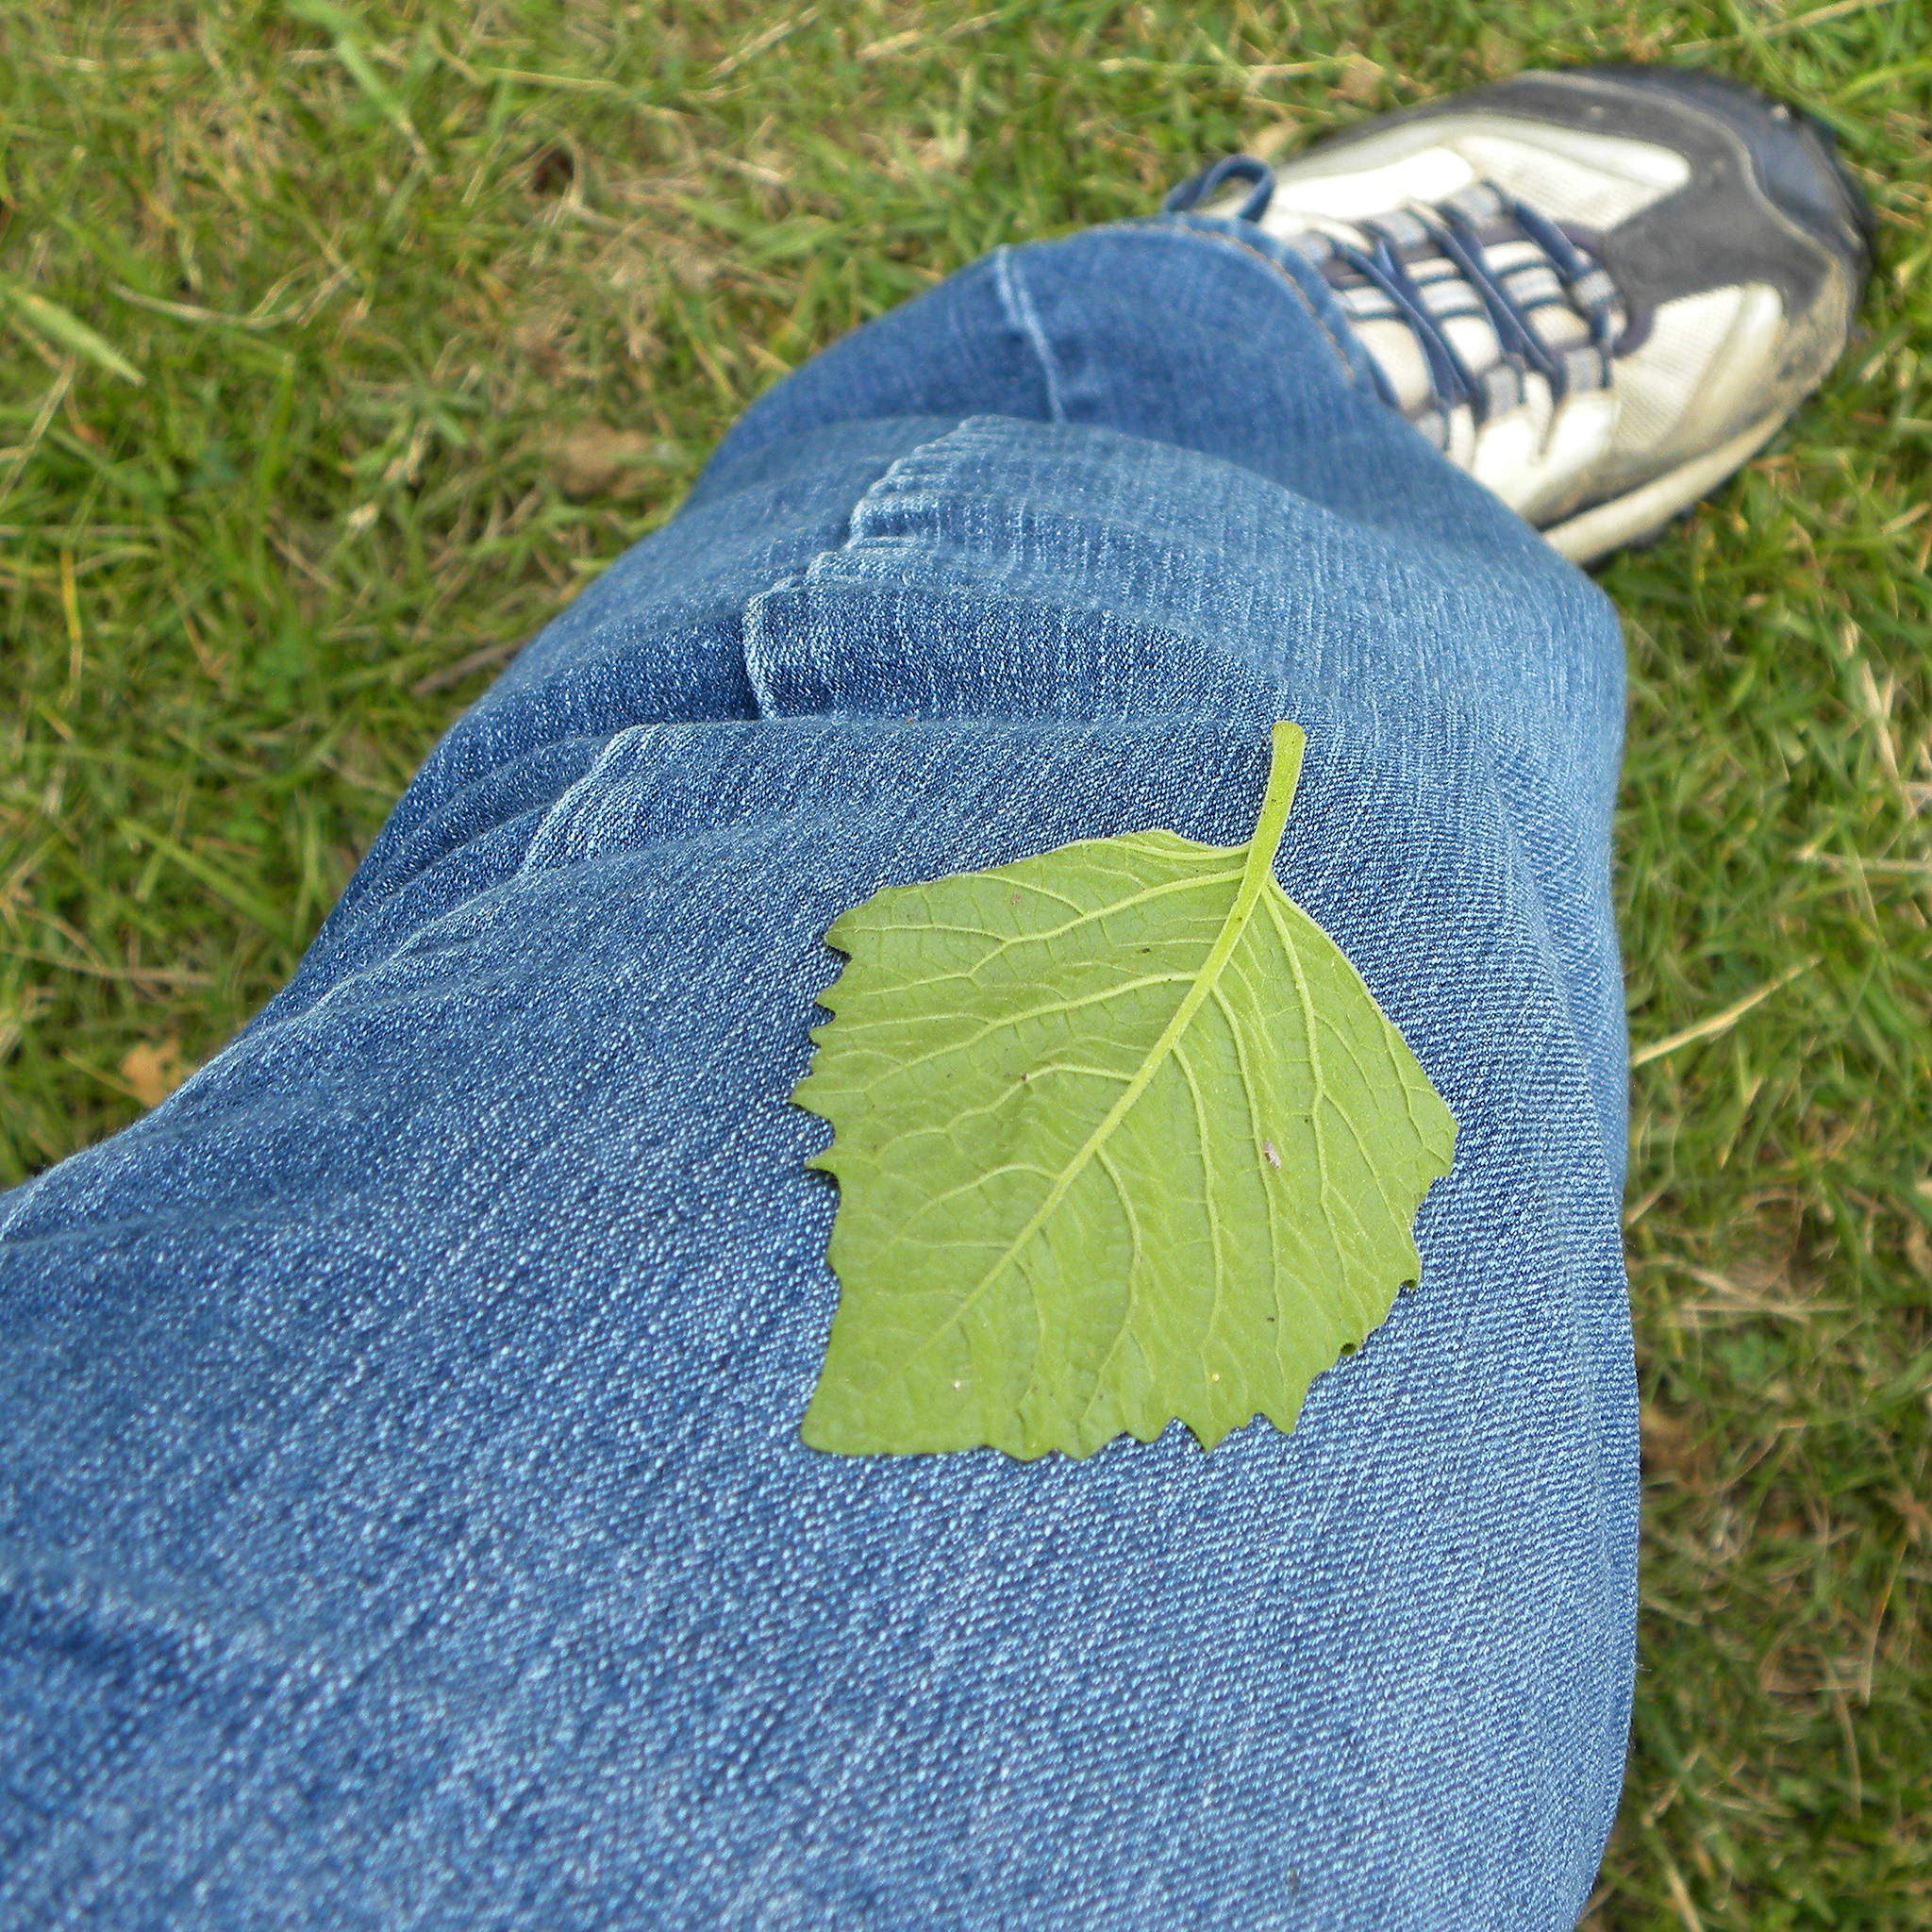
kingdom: Plantae
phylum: Tracheophyta
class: Magnoliopsida
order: Solanales
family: Solanaceae
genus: Physalis
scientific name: Physalis heterophylla
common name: Clammy ground-cherry
